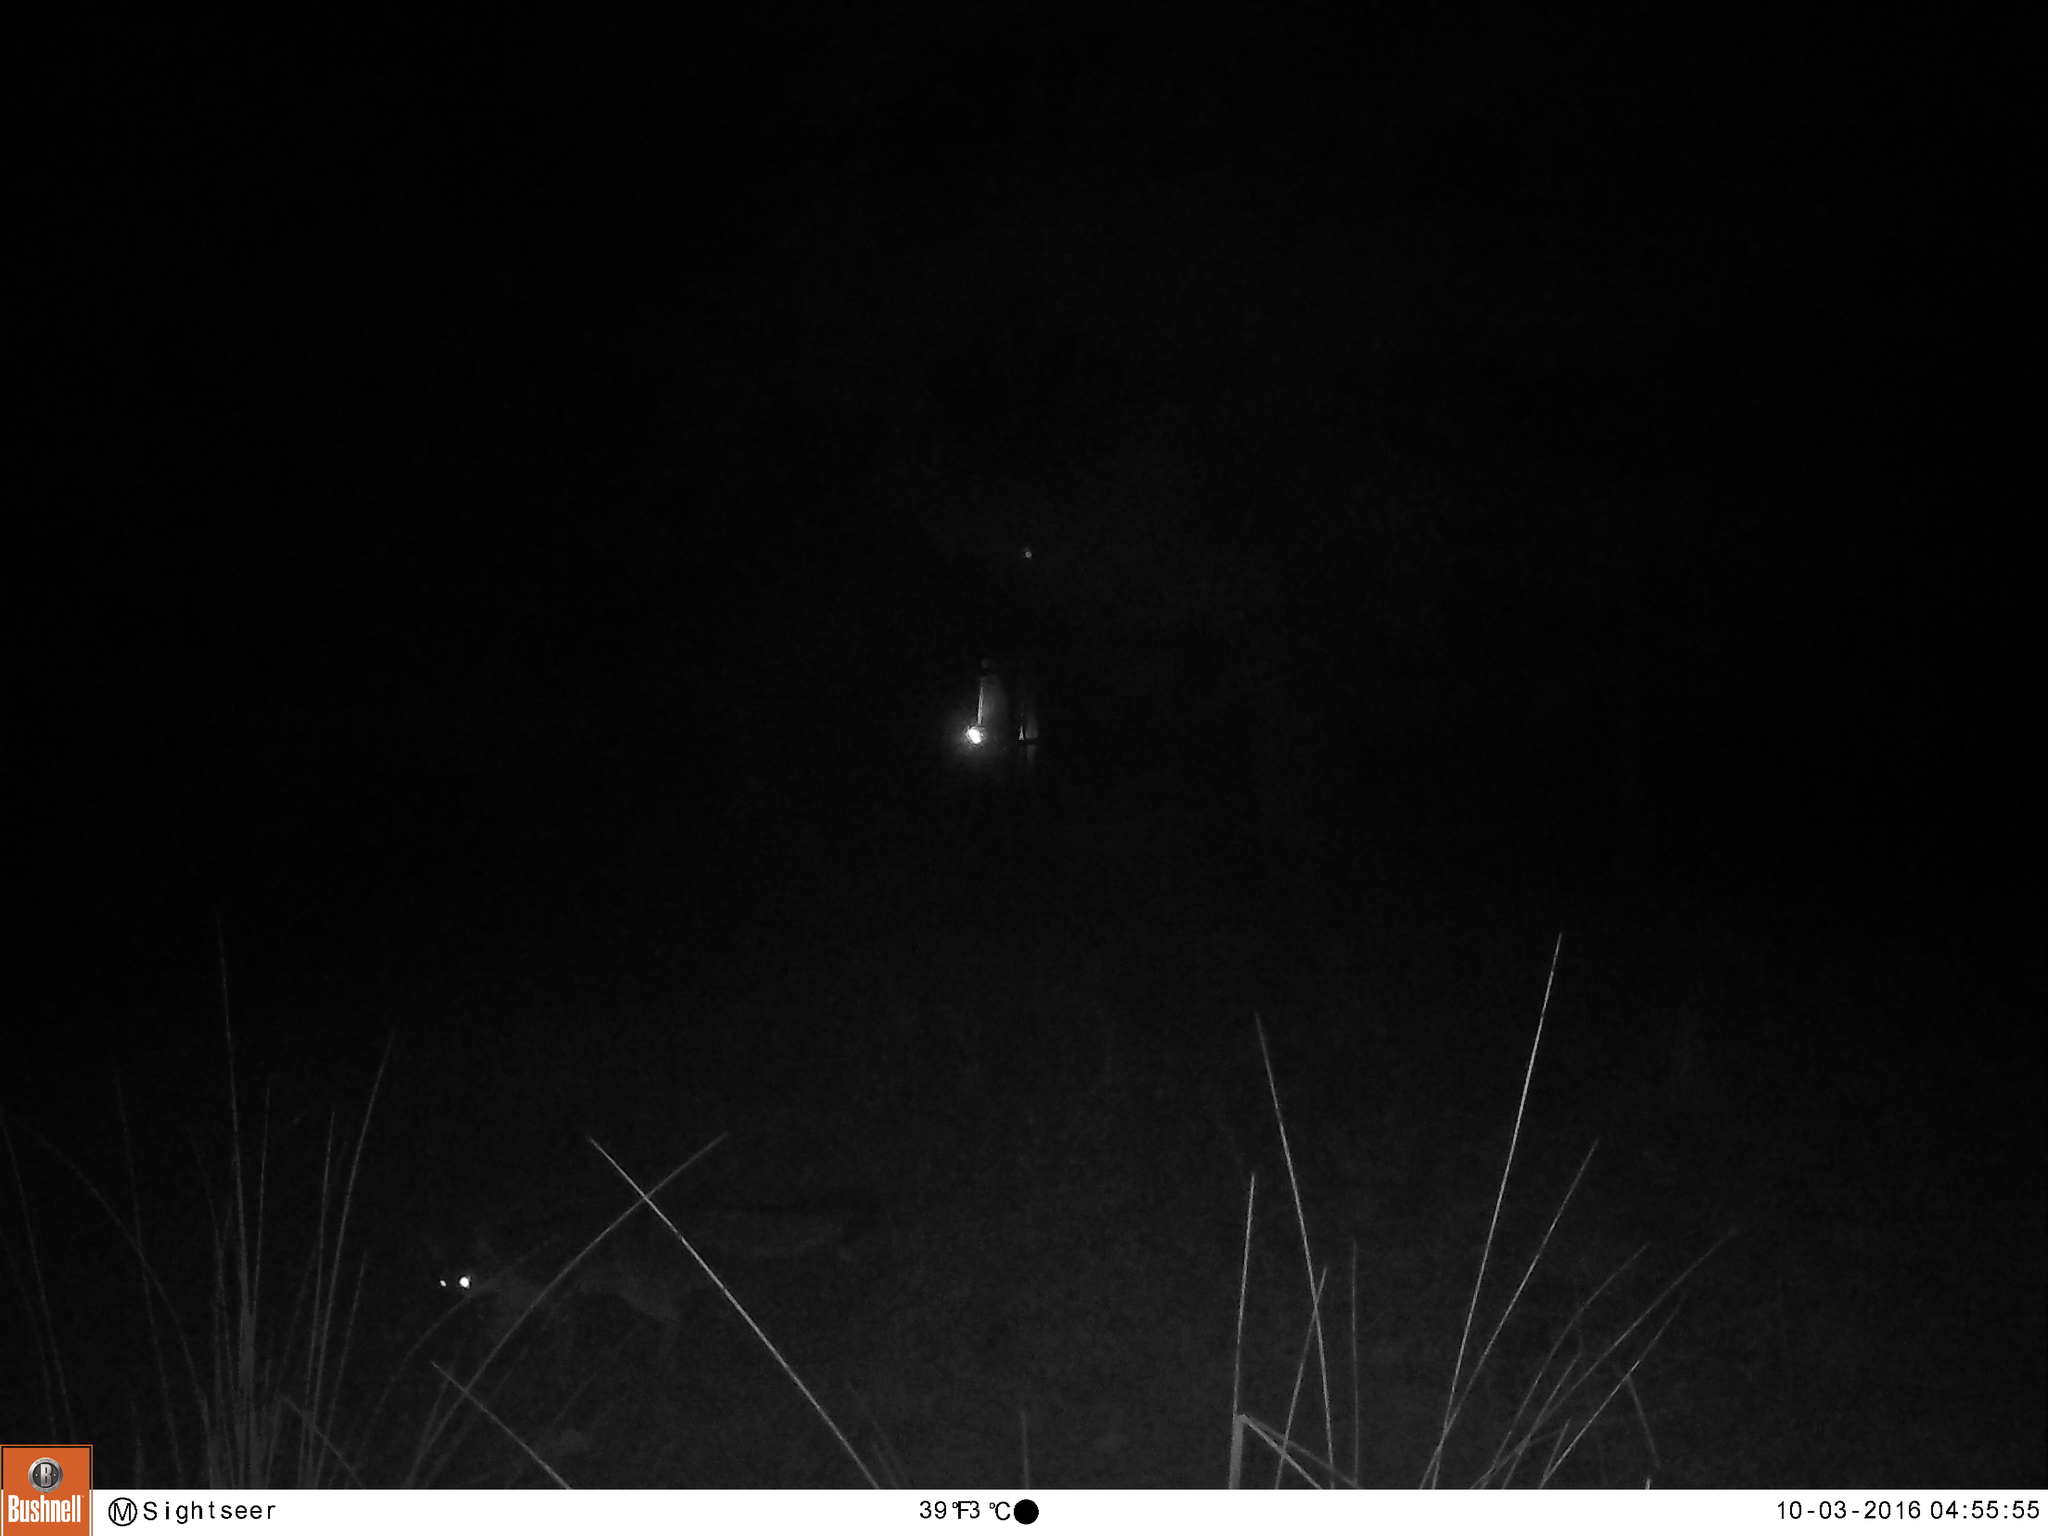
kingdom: Animalia
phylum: Chordata
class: Mammalia
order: Carnivora
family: Canidae
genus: Urocyon
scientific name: Urocyon cinereoargenteus
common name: Gray fox
